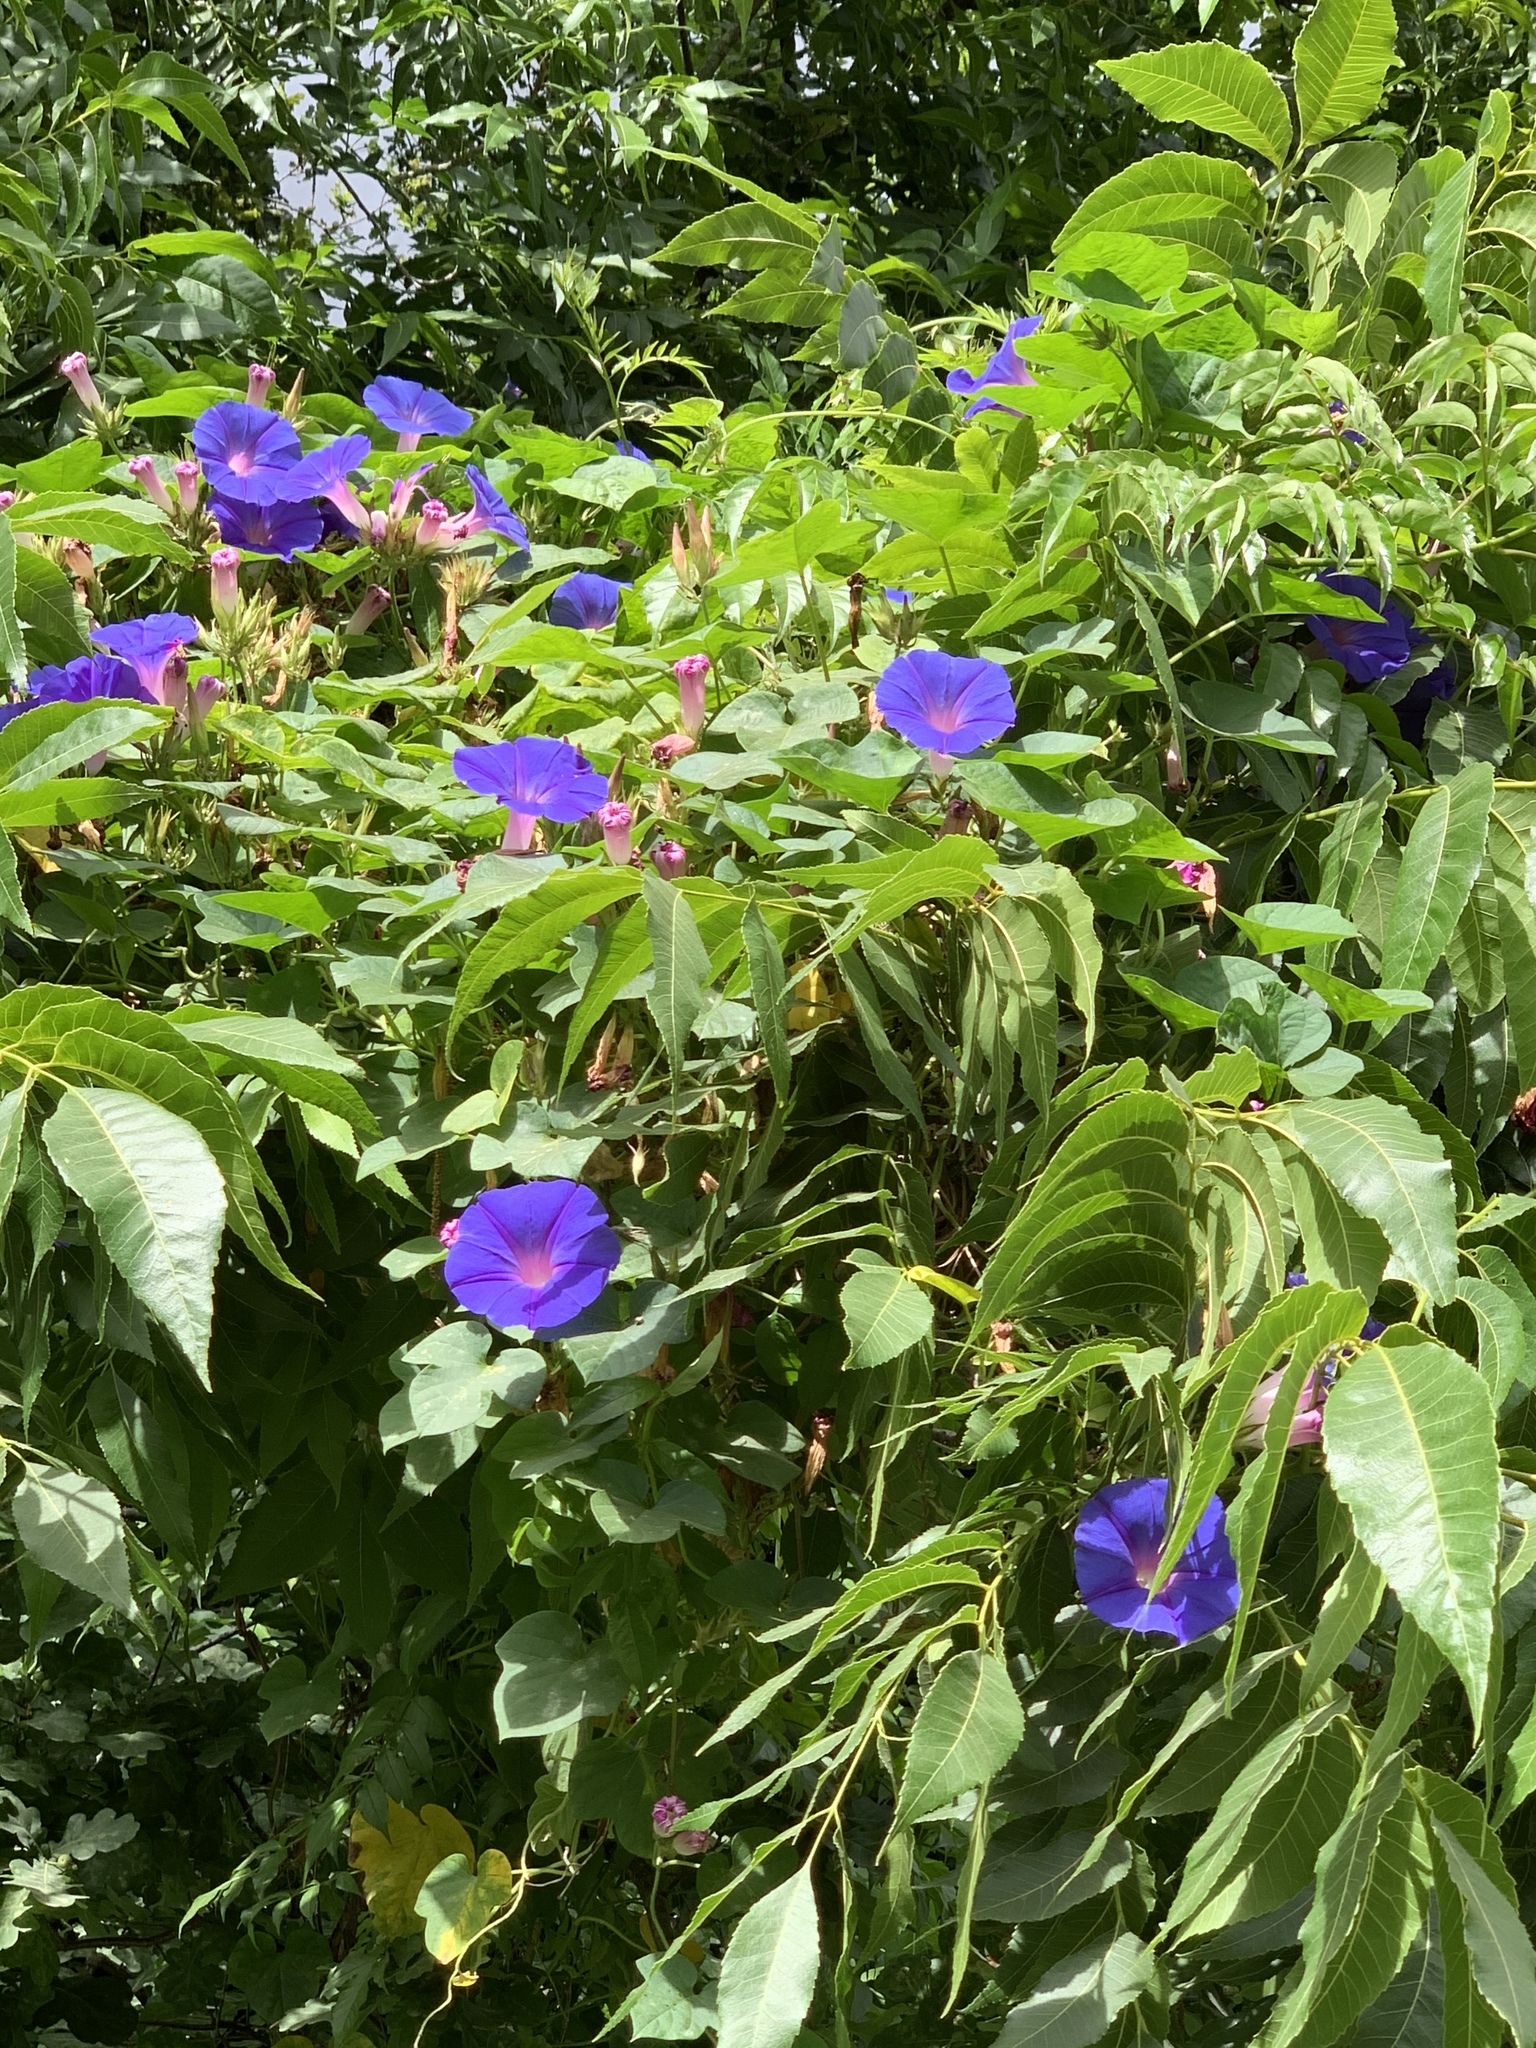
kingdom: Plantae
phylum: Tracheophyta
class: Magnoliopsida
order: Solanales
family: Convolvulaceae
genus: Ipomoea
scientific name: Ipomoea indica
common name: Blue dawnflower
